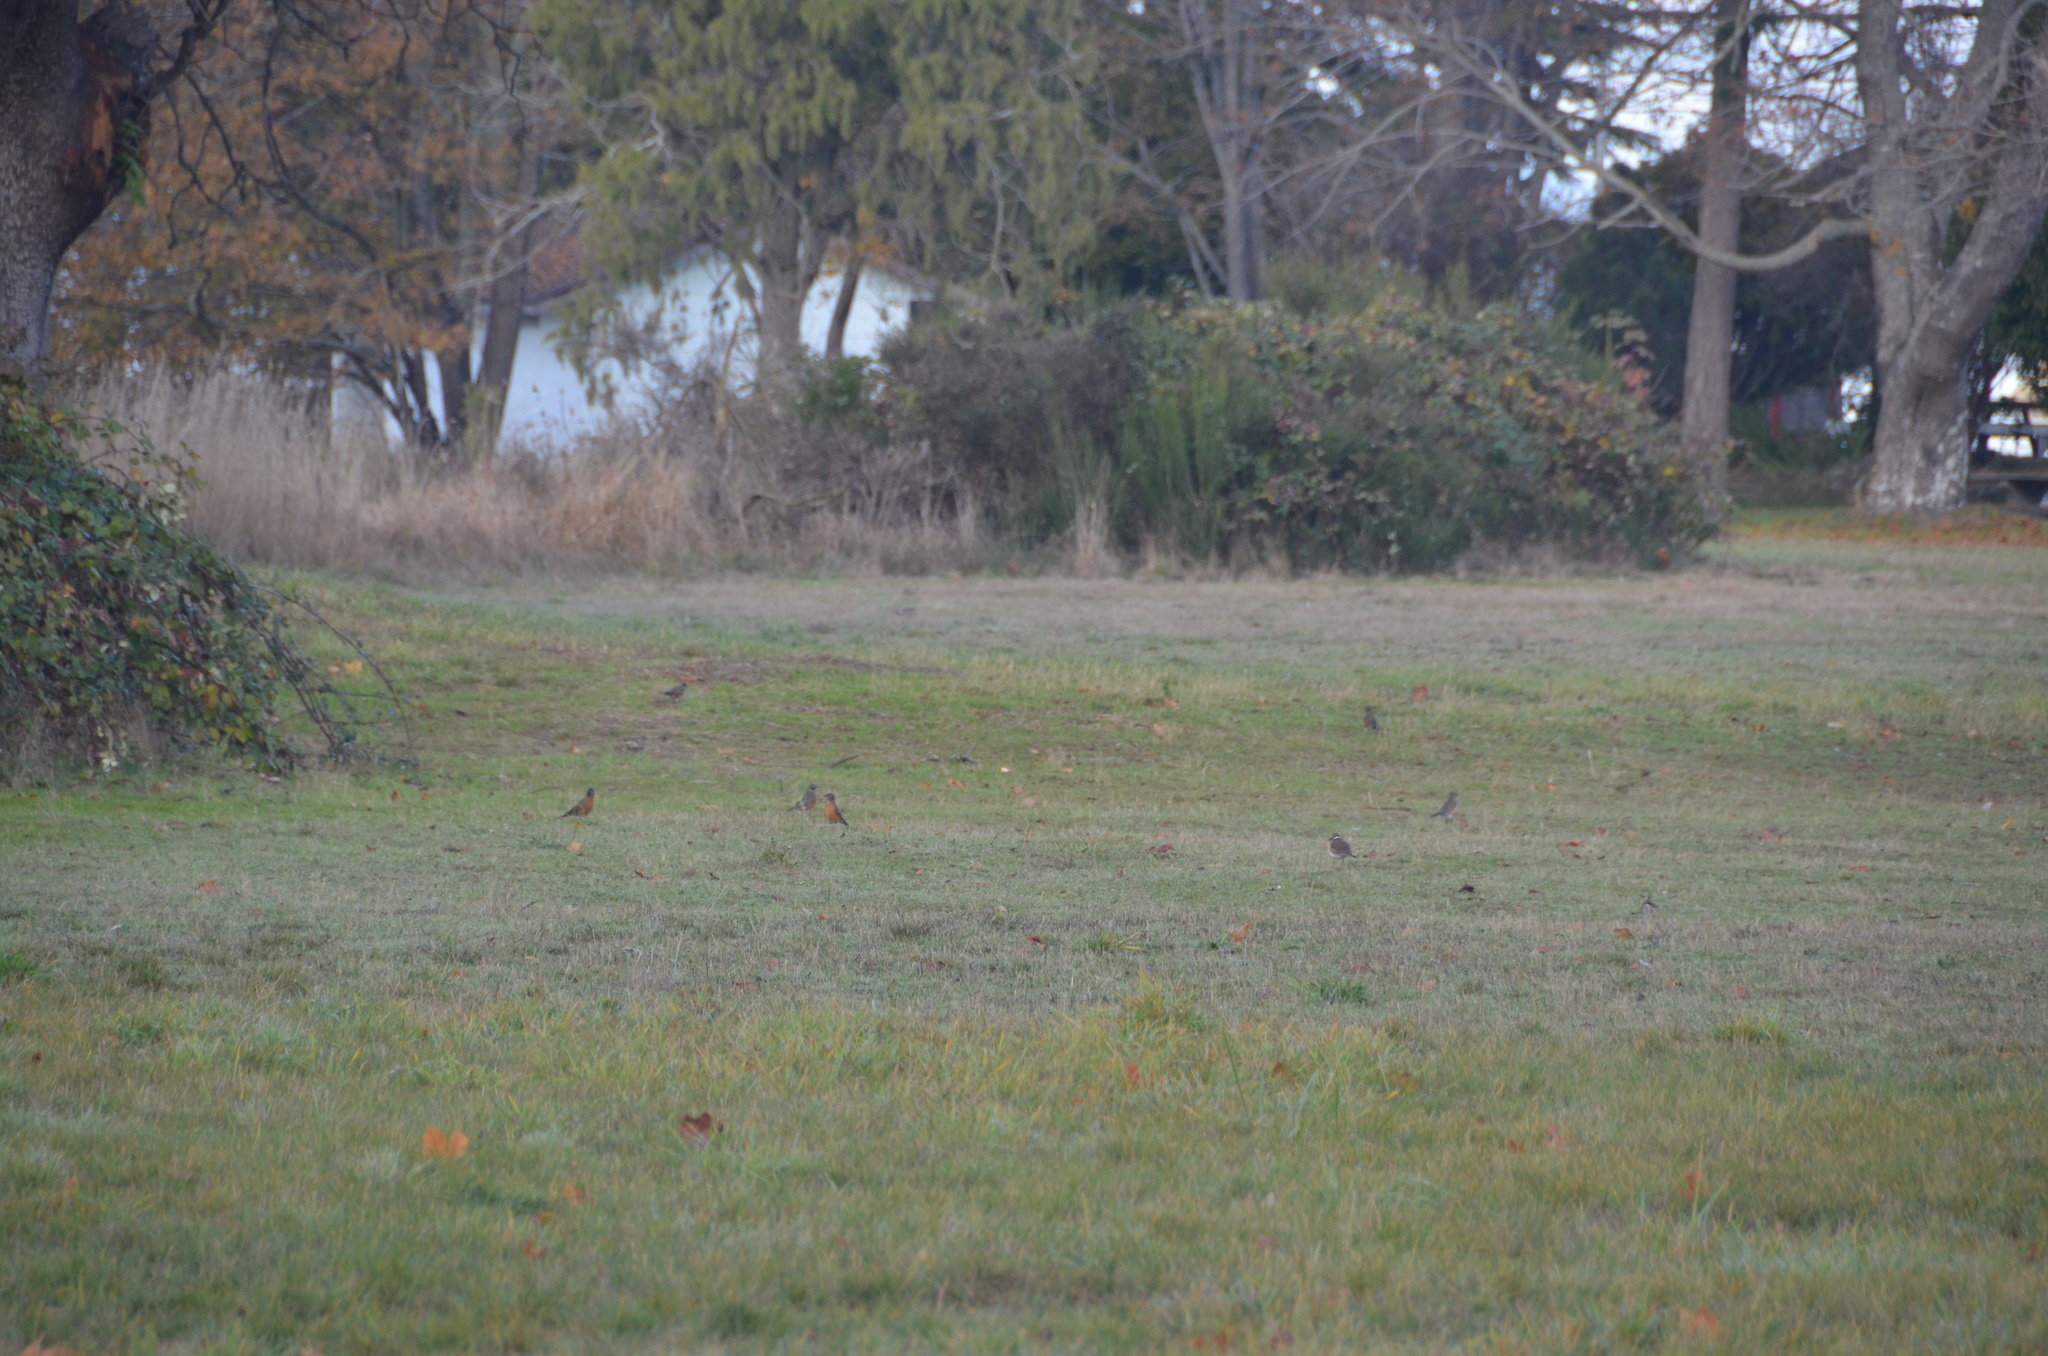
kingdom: Animalia
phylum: Chordata
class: Aves
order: Passeriformes
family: Turdidae
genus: Turdus
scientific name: Turdus migratorius
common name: American robin
